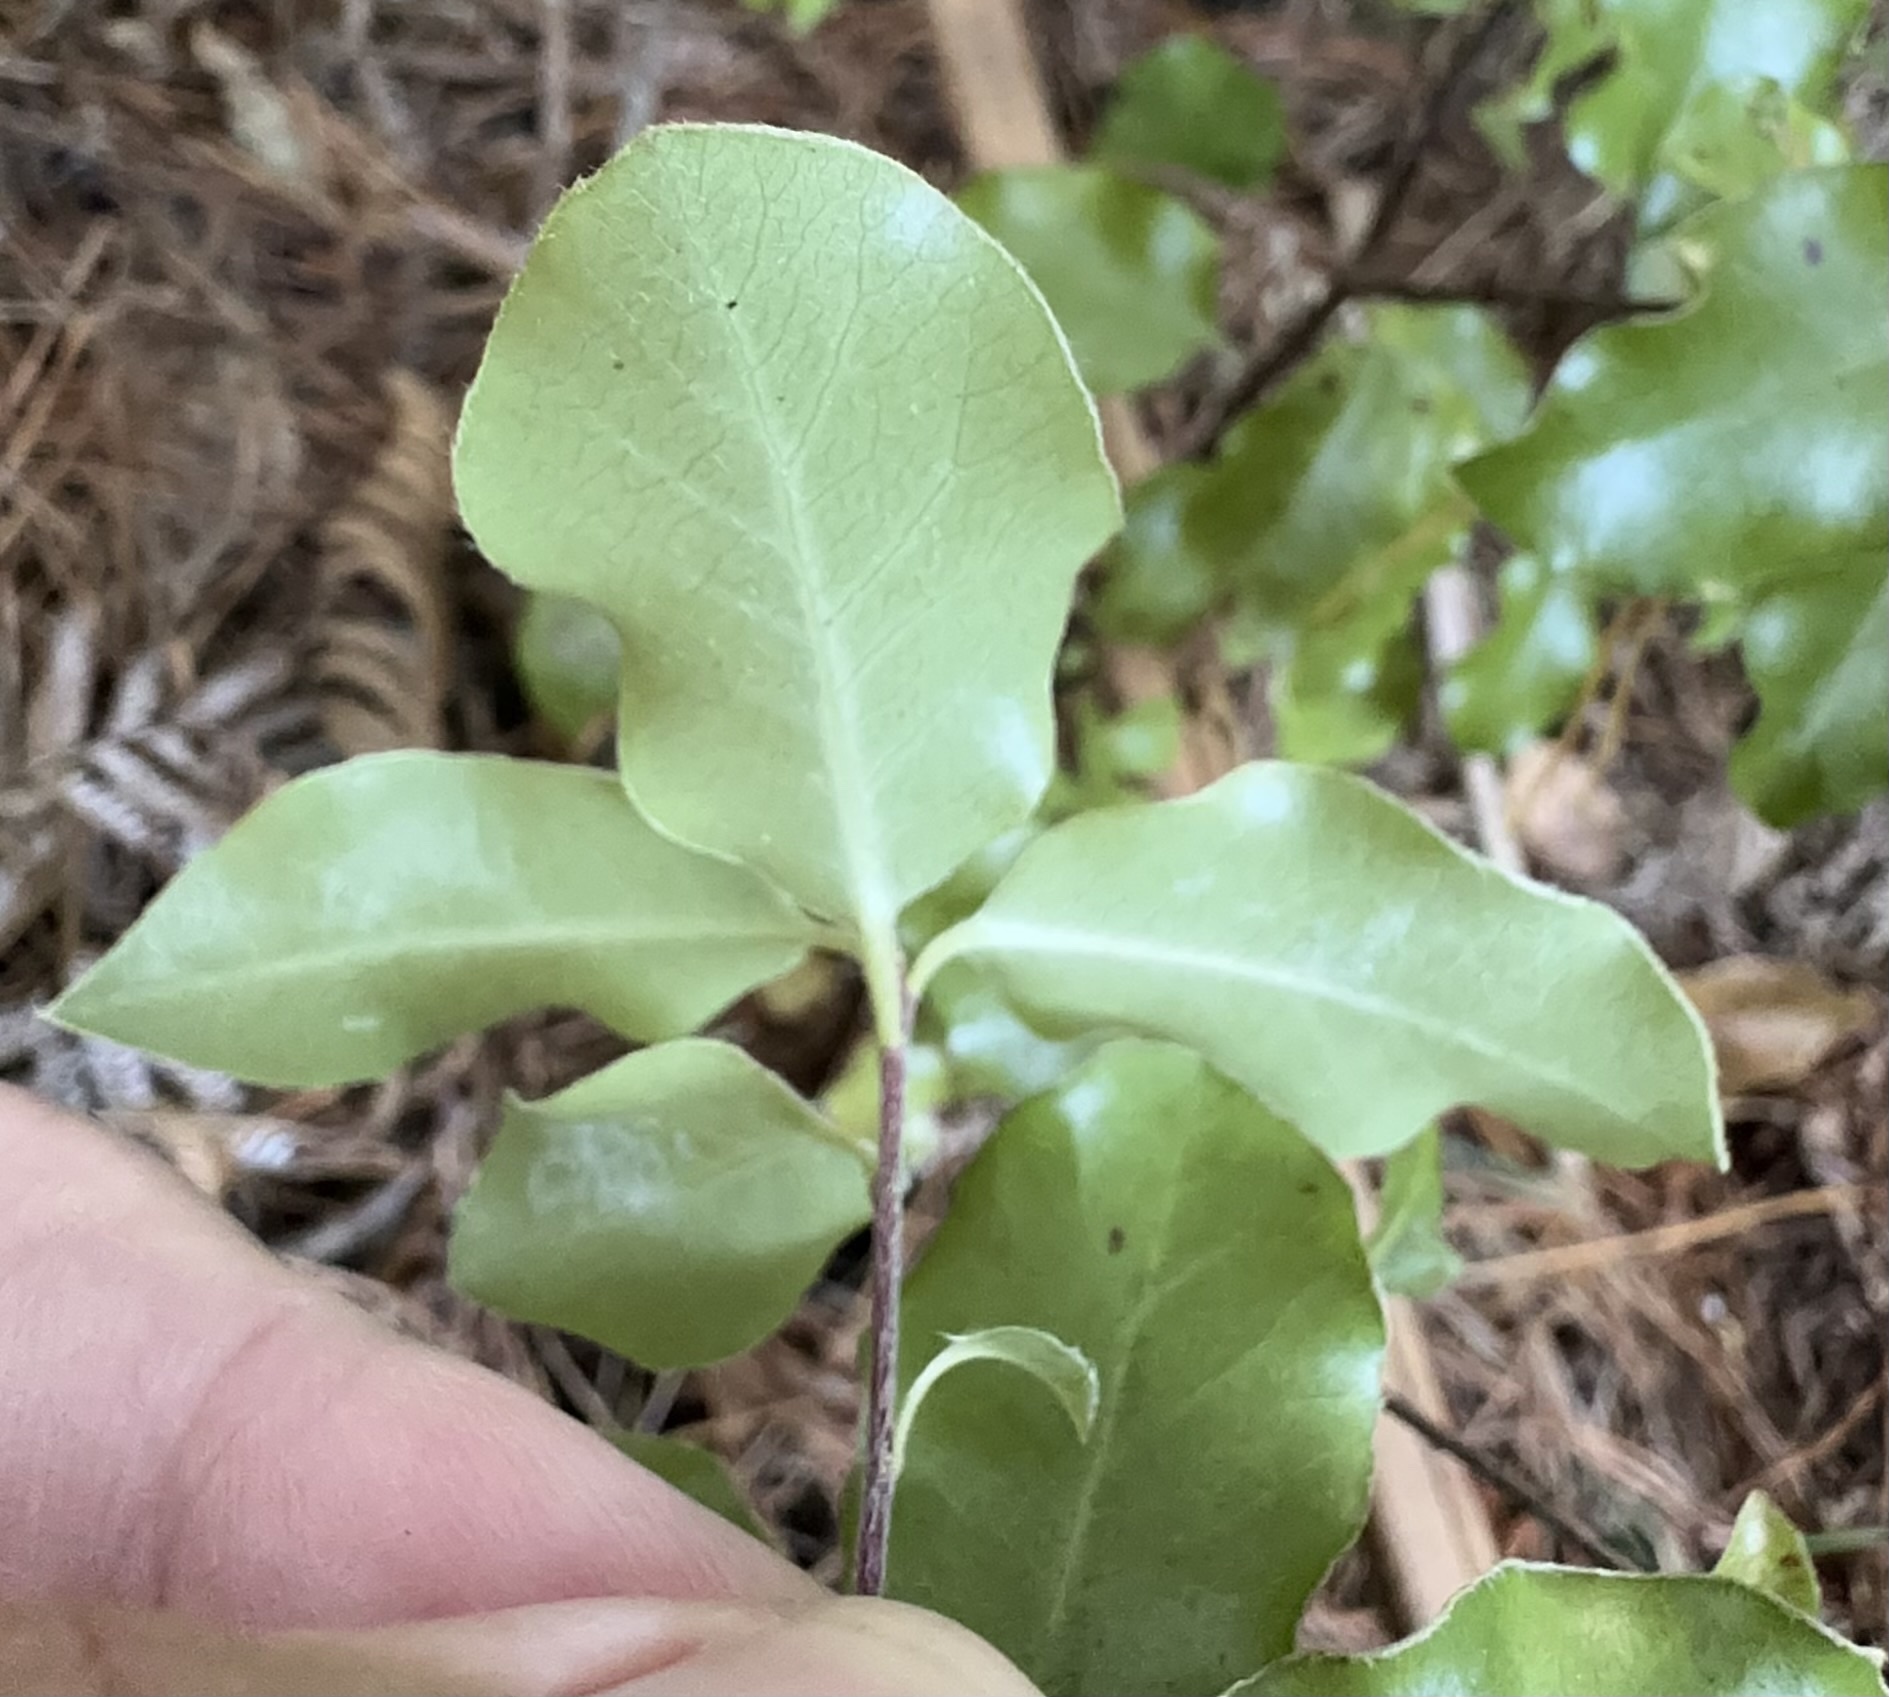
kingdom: Plantae
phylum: Tracheophyta
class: Magnoliopsida
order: Apiales
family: Pittosporaceae
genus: Pittosporum
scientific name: Pittosporum tenuifolium
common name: Kohuhu
